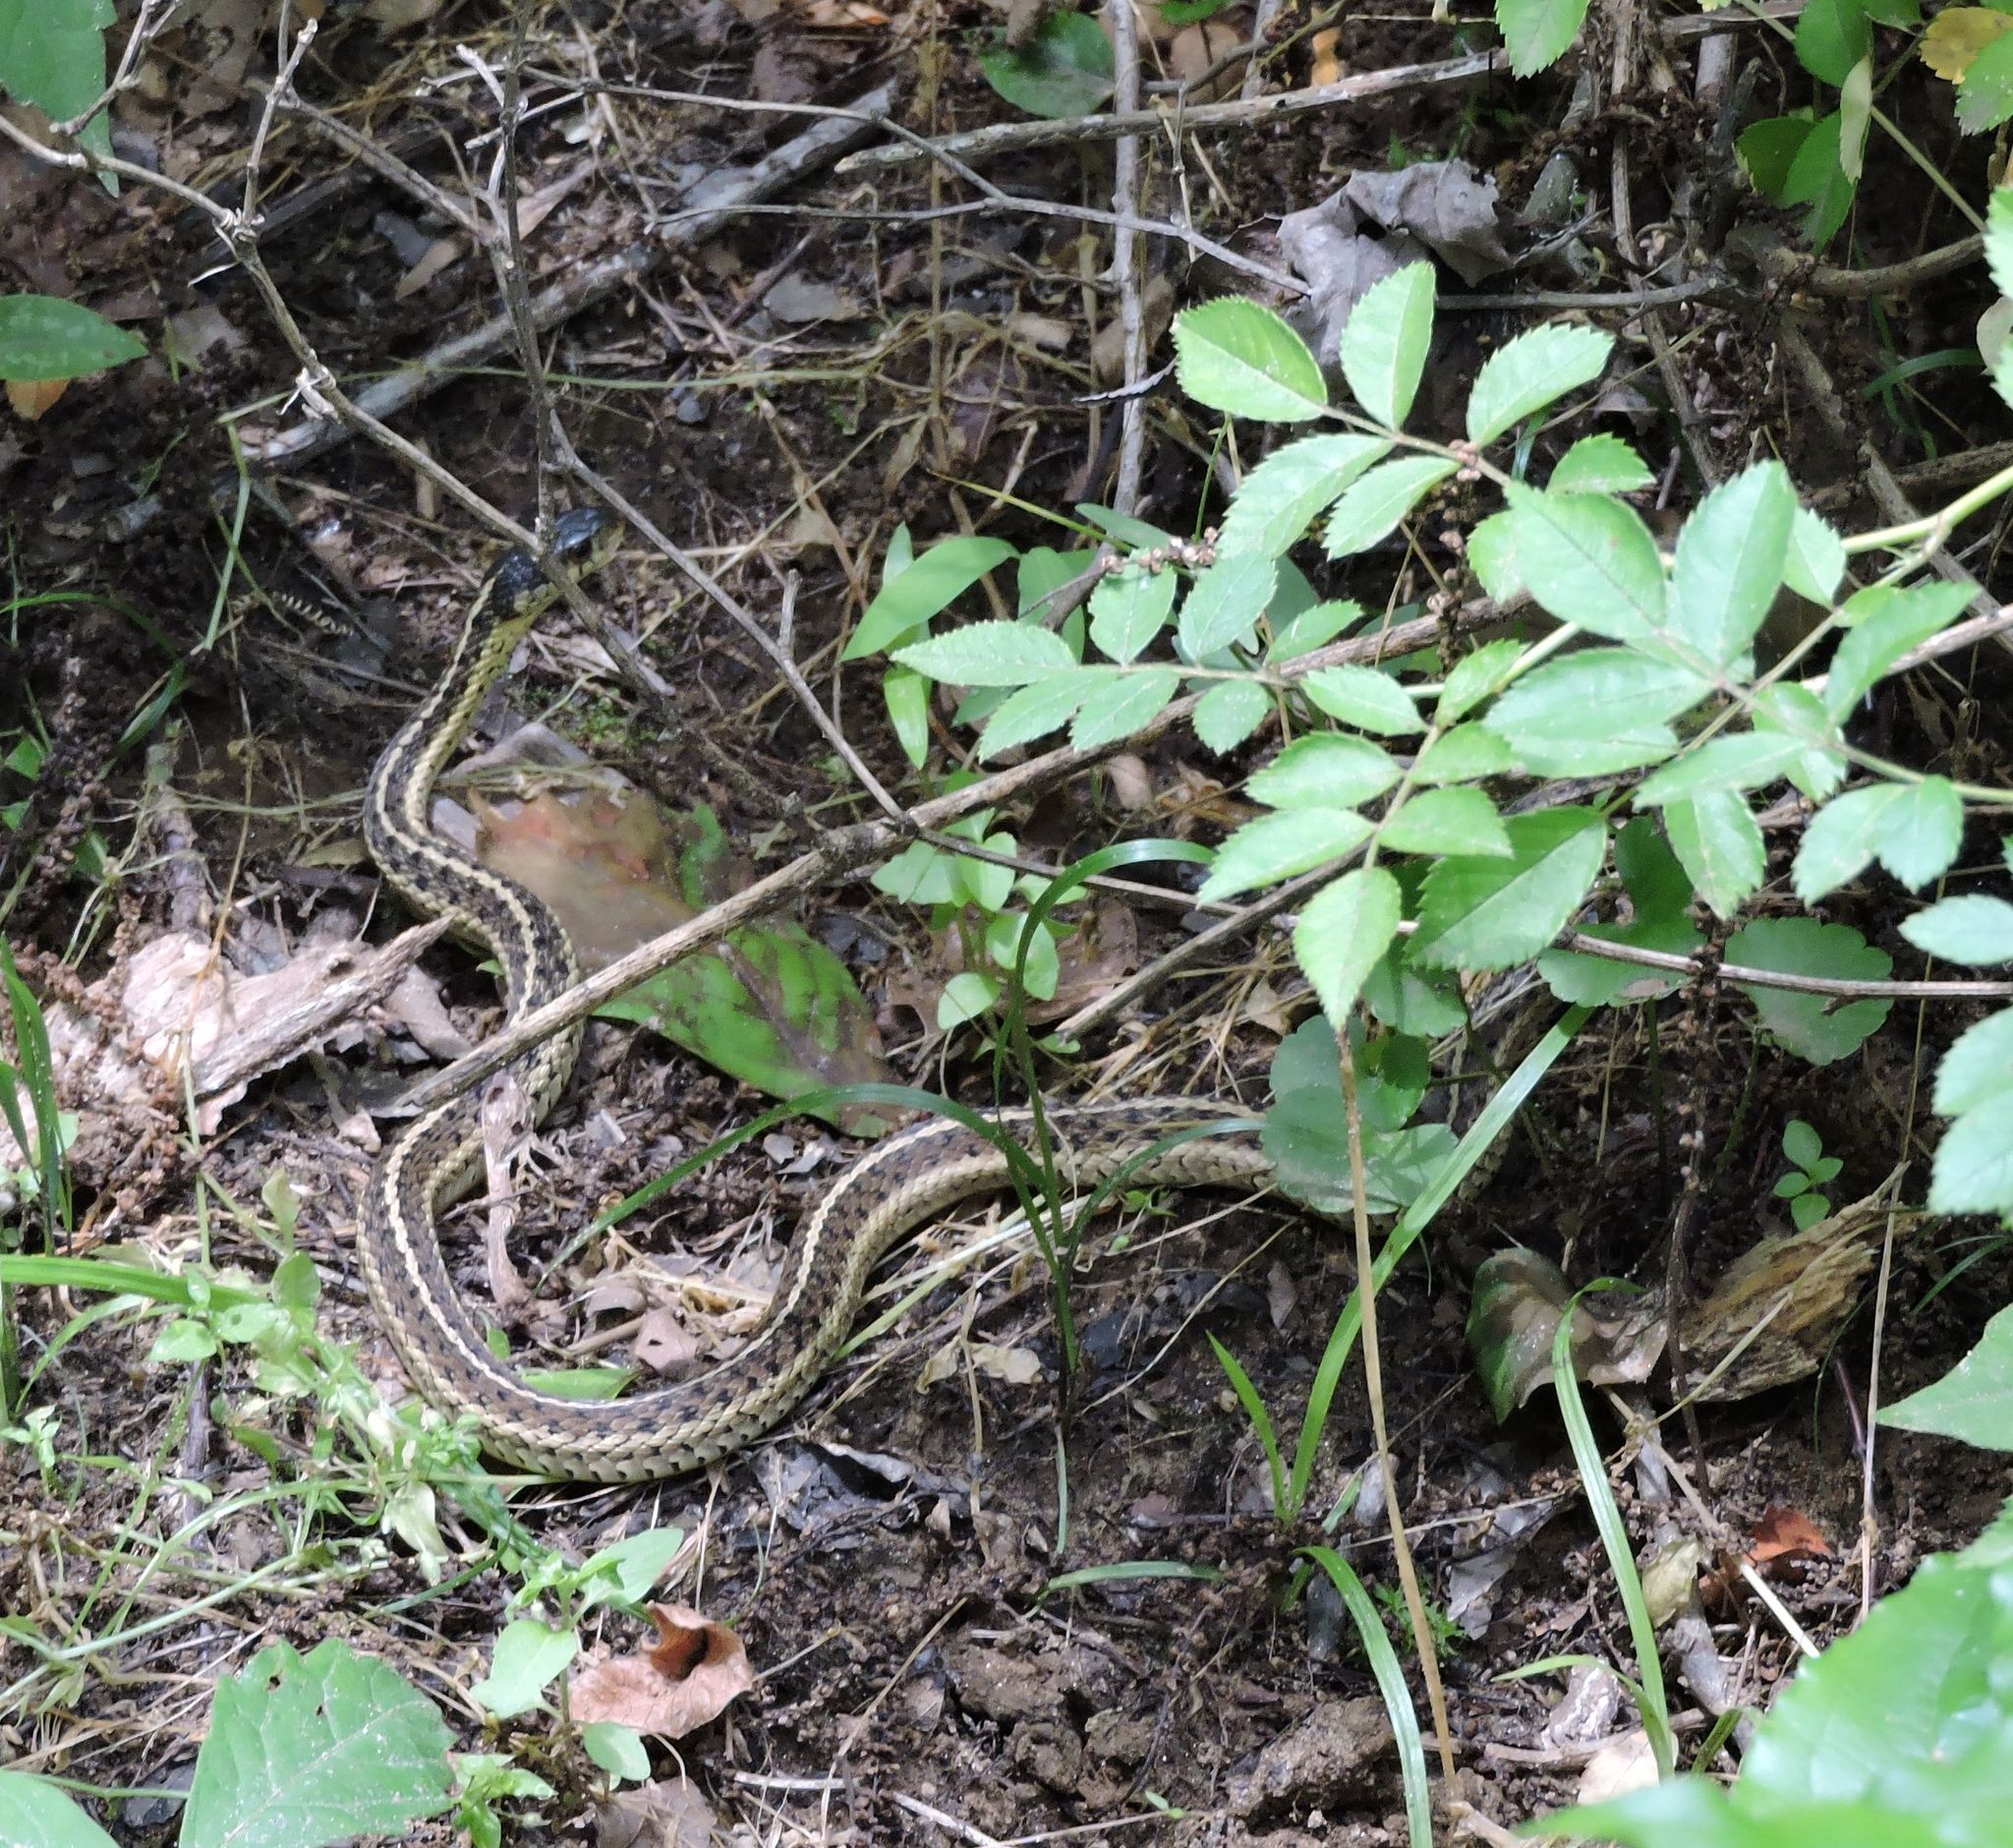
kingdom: Animalia
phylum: Chordata
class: Squamata
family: Colubridae
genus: Thamnophis
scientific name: Thamnophis sirtalis
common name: Common garter snake
